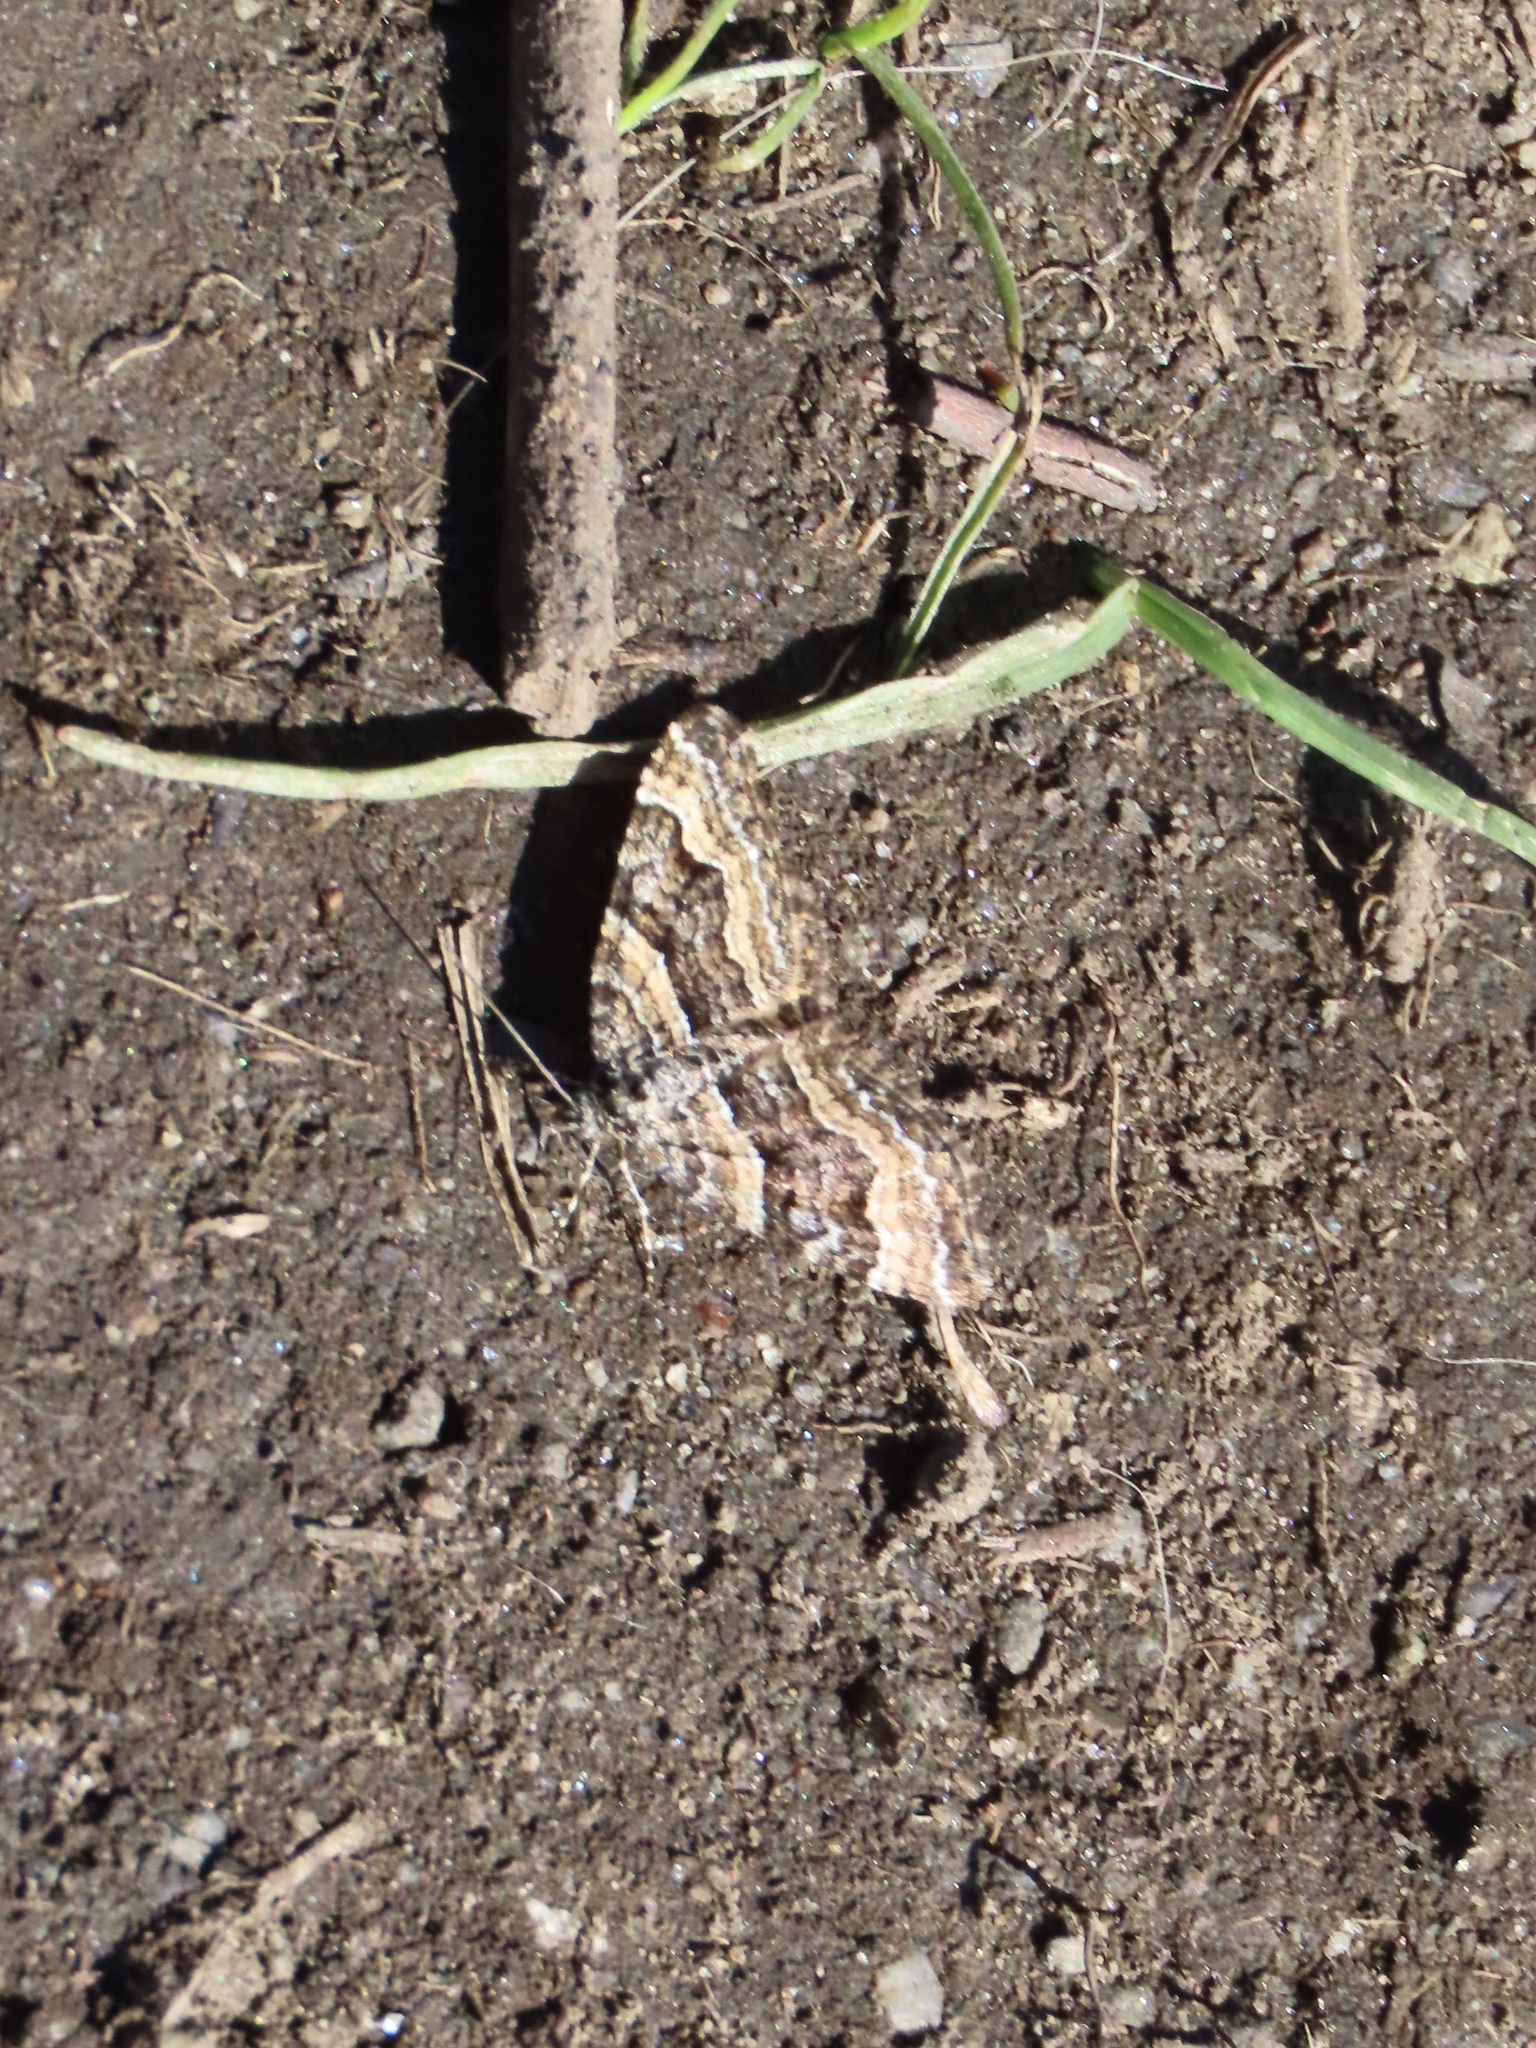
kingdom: Animalia
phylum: Arthropoda
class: Insecta
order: Lepidoptera
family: Geometridae
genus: Epirrhoe
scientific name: Epirrhoe plebeculata
